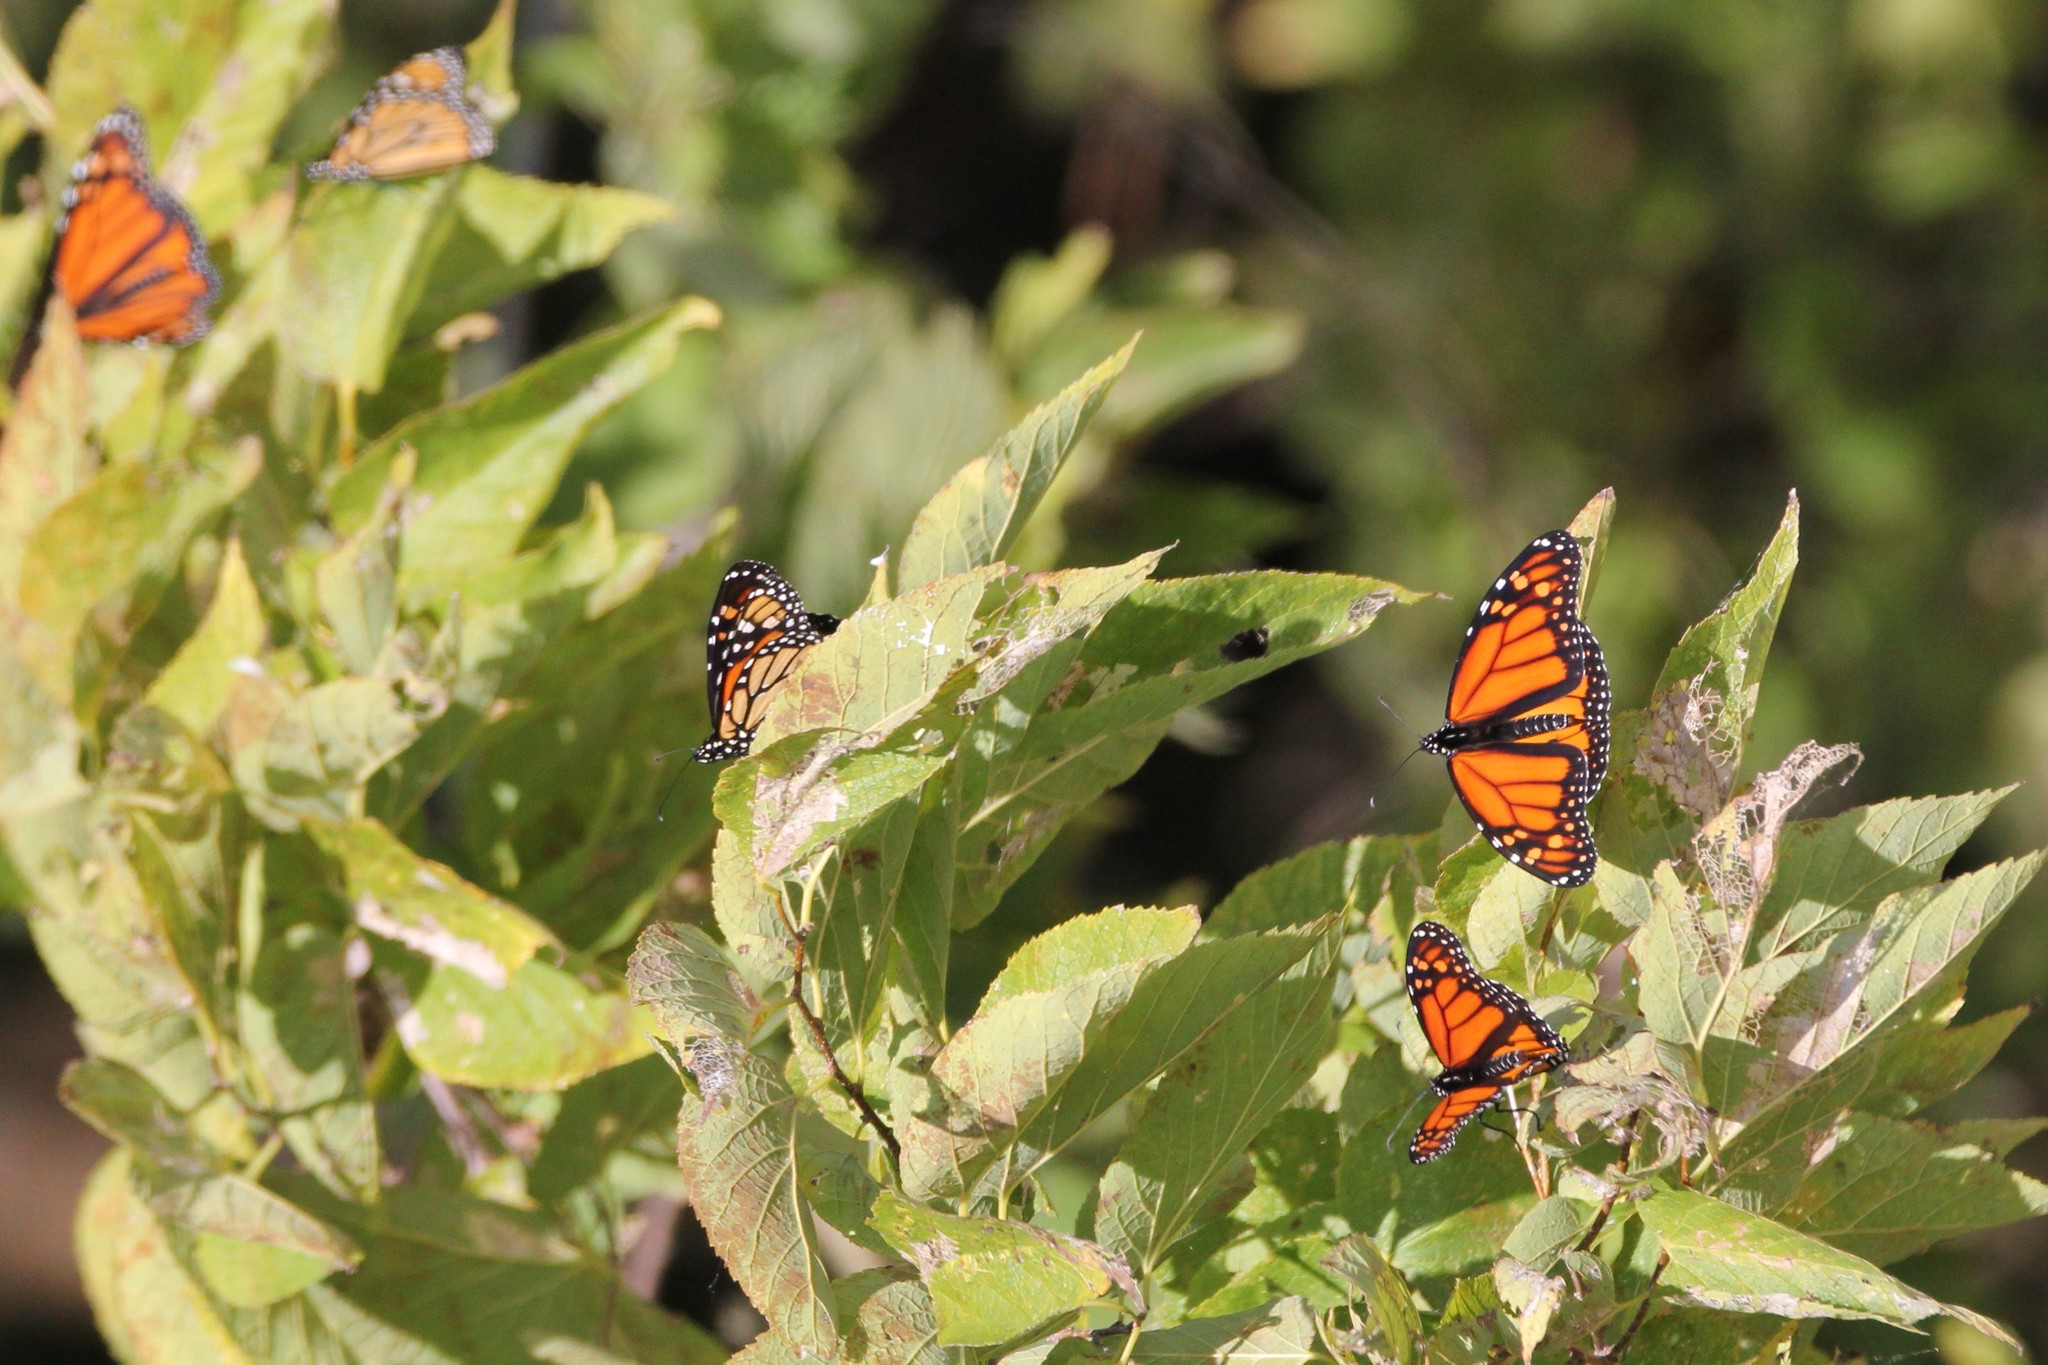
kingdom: Animalia
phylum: Arthropoda
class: Insecta
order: Lepidoptera
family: Nymphalidae
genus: Danaus
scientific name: Danaus plexippus
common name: Monarch
